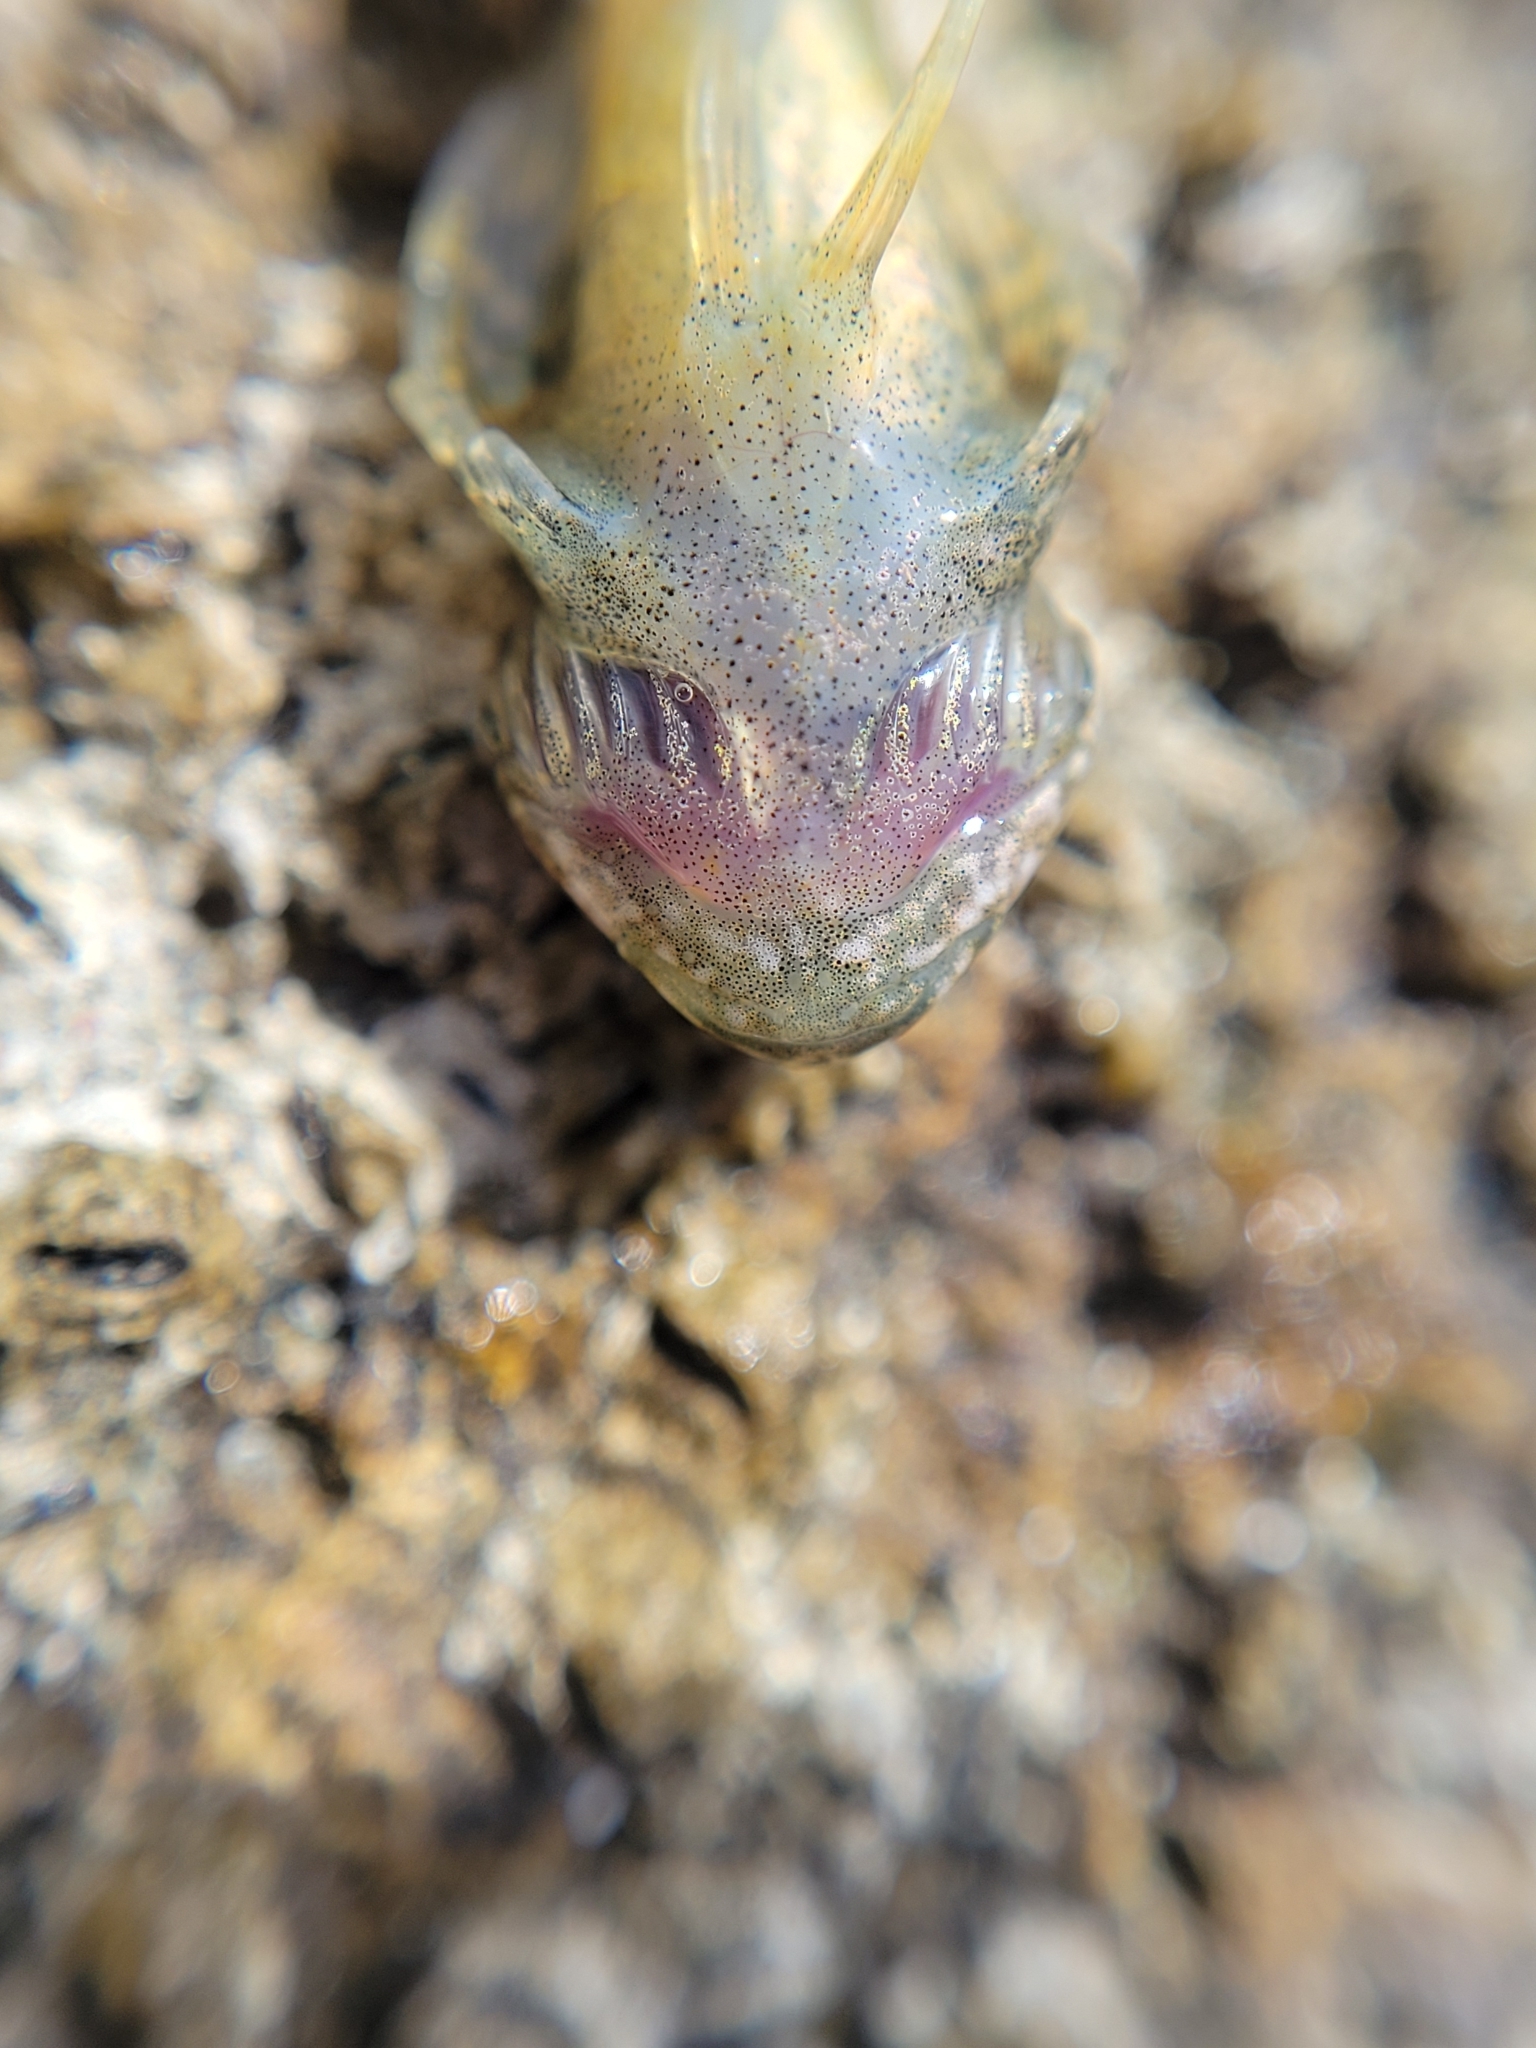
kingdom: Animalia
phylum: Chordata
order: Scorpaeniformes
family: Cottidae
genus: Clinocottus
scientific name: Clinocottus globiceps
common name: Mosshead sculpin
